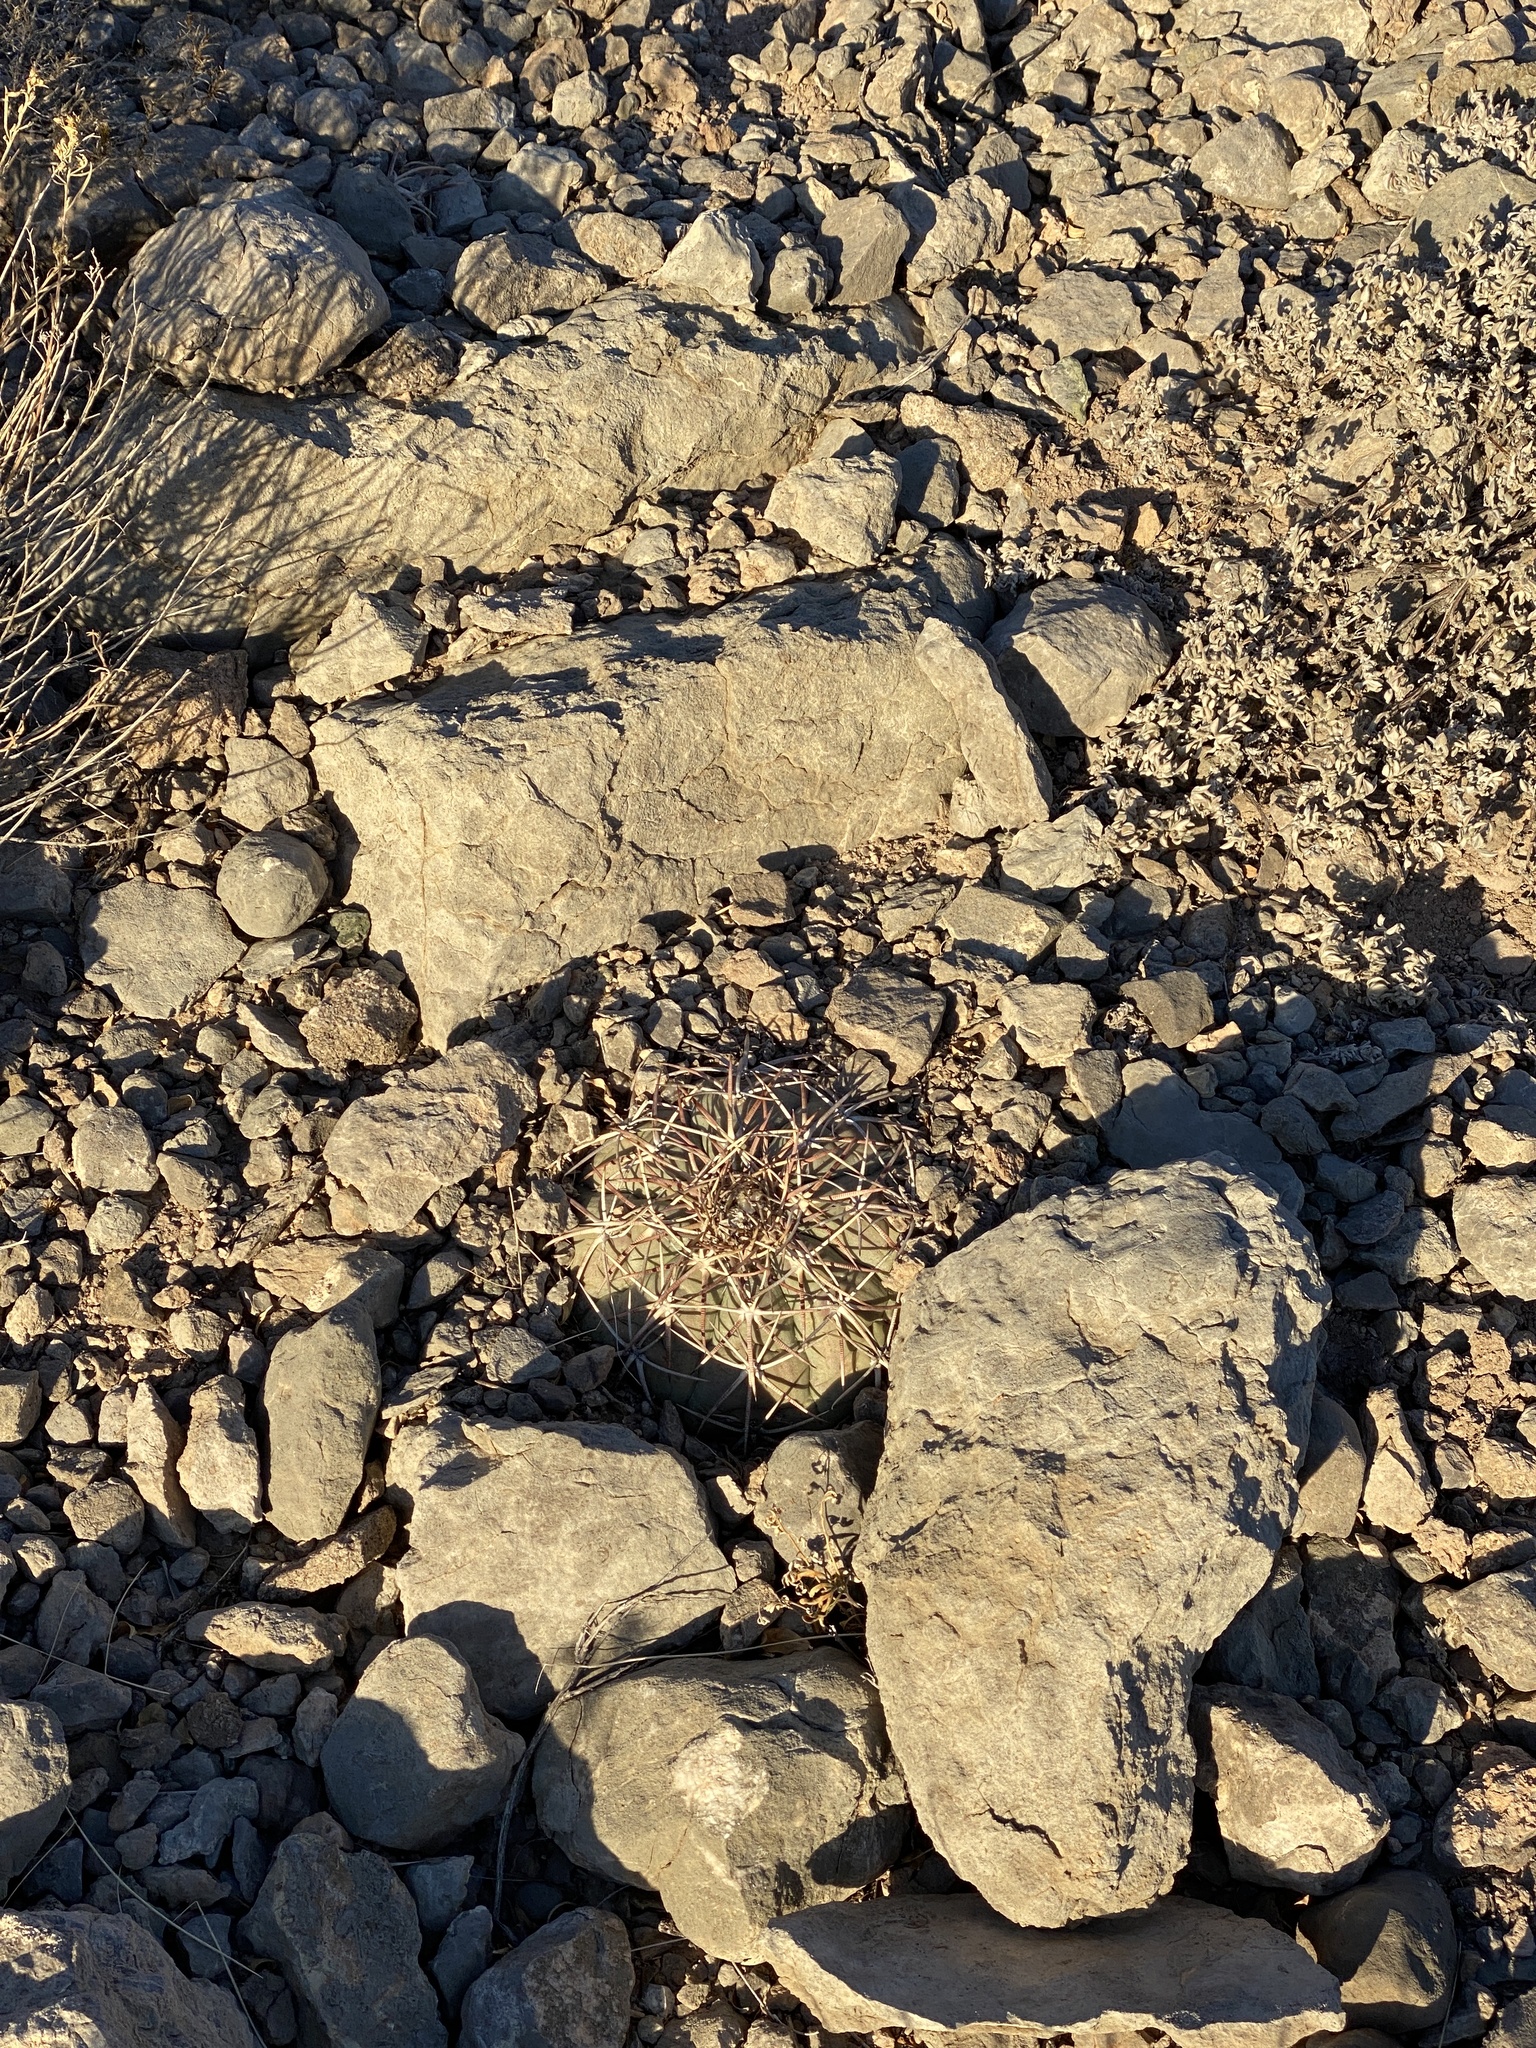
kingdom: Plantae
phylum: Tracheophyta
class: Magnoliopsida
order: Caryophyllales
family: Cactaceae
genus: Echinocactus
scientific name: Echinocactus horizonthalonius
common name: Devilshead
